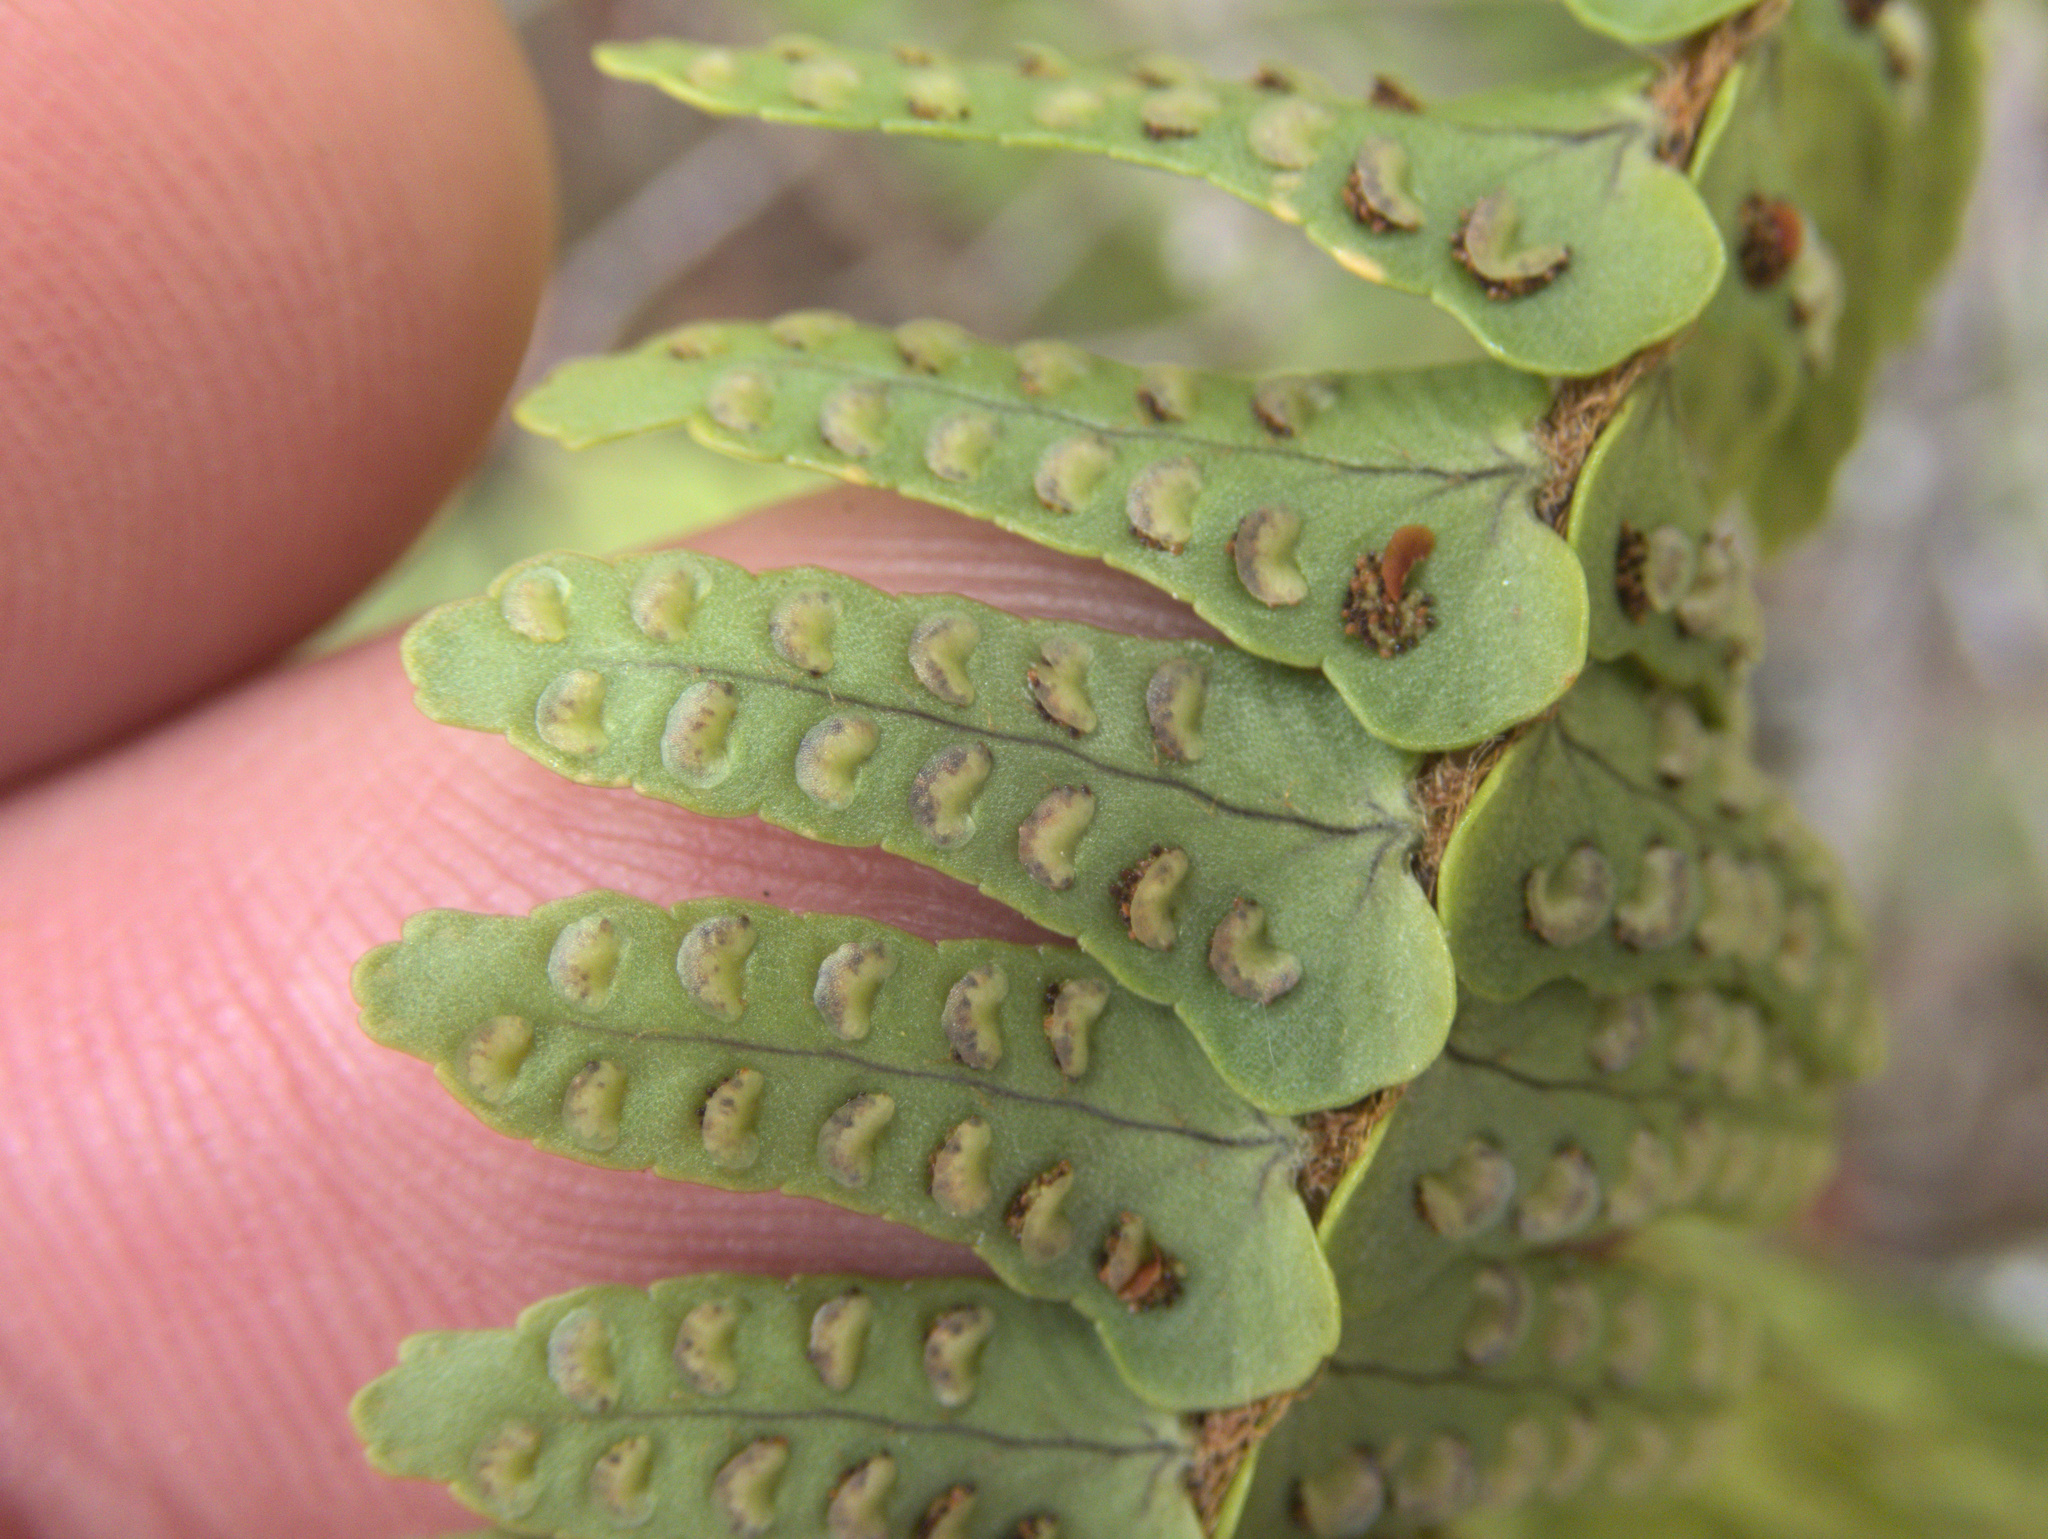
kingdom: Plantae
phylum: Tracheophyta
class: Polypodiopsida
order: Polypodiales
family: Nephrolepidaceae
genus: Nephrolepis
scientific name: Nephrolepis flexuosa
